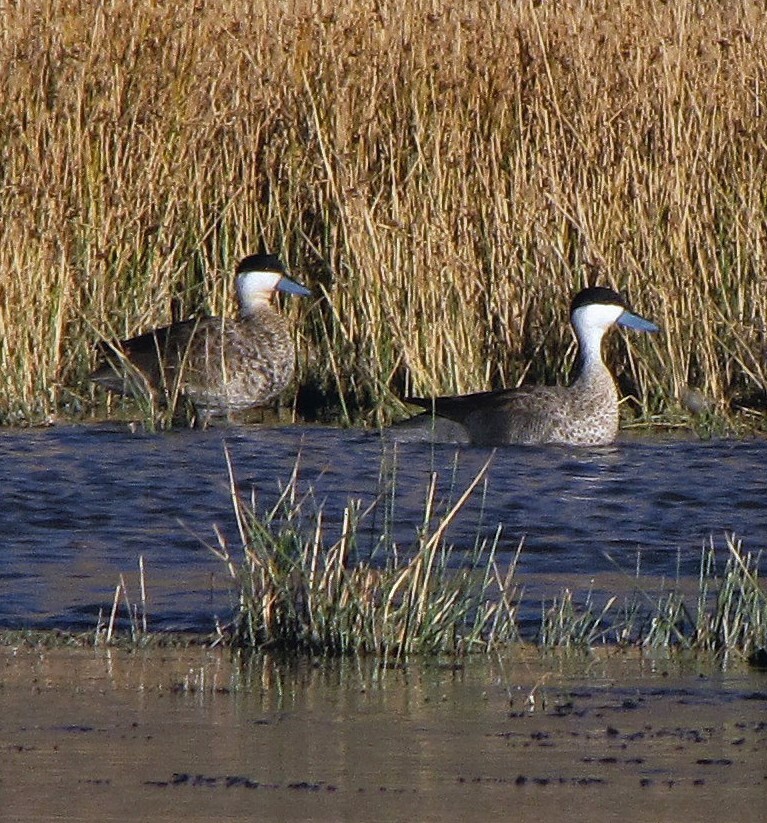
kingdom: Animalia
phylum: Chordata
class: Aves
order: Anseriformes
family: Anatidae
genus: Spatula
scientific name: Spatula puna
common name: Puna teal
